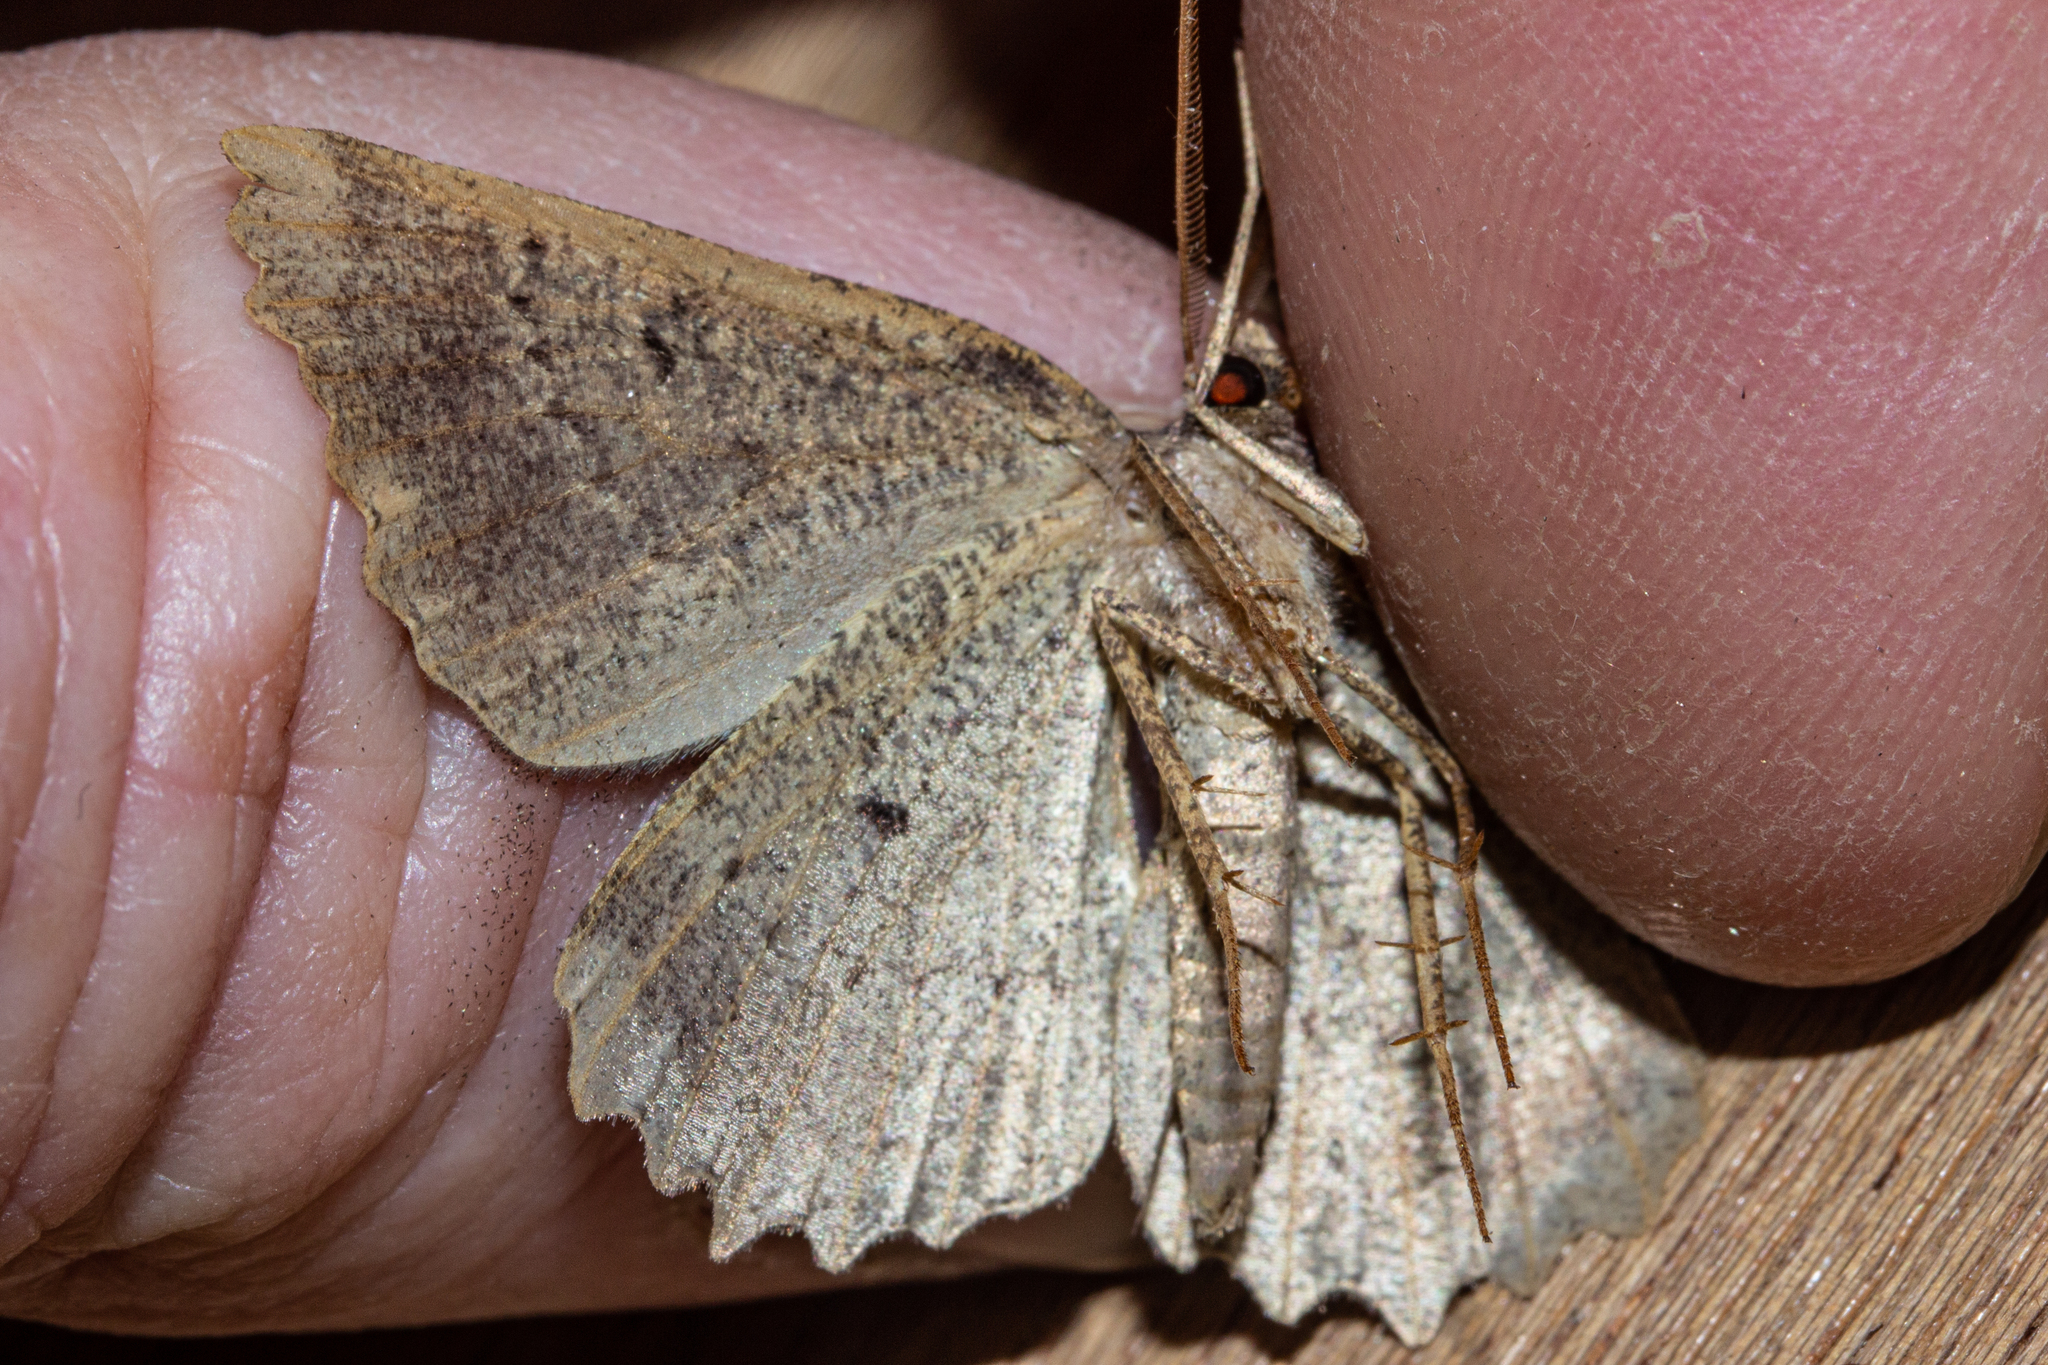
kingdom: Animalia
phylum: Arthropoda
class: Insecta
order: Lepidoptera
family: Geometridae
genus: Gellonia
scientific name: Gellonia pannularia
